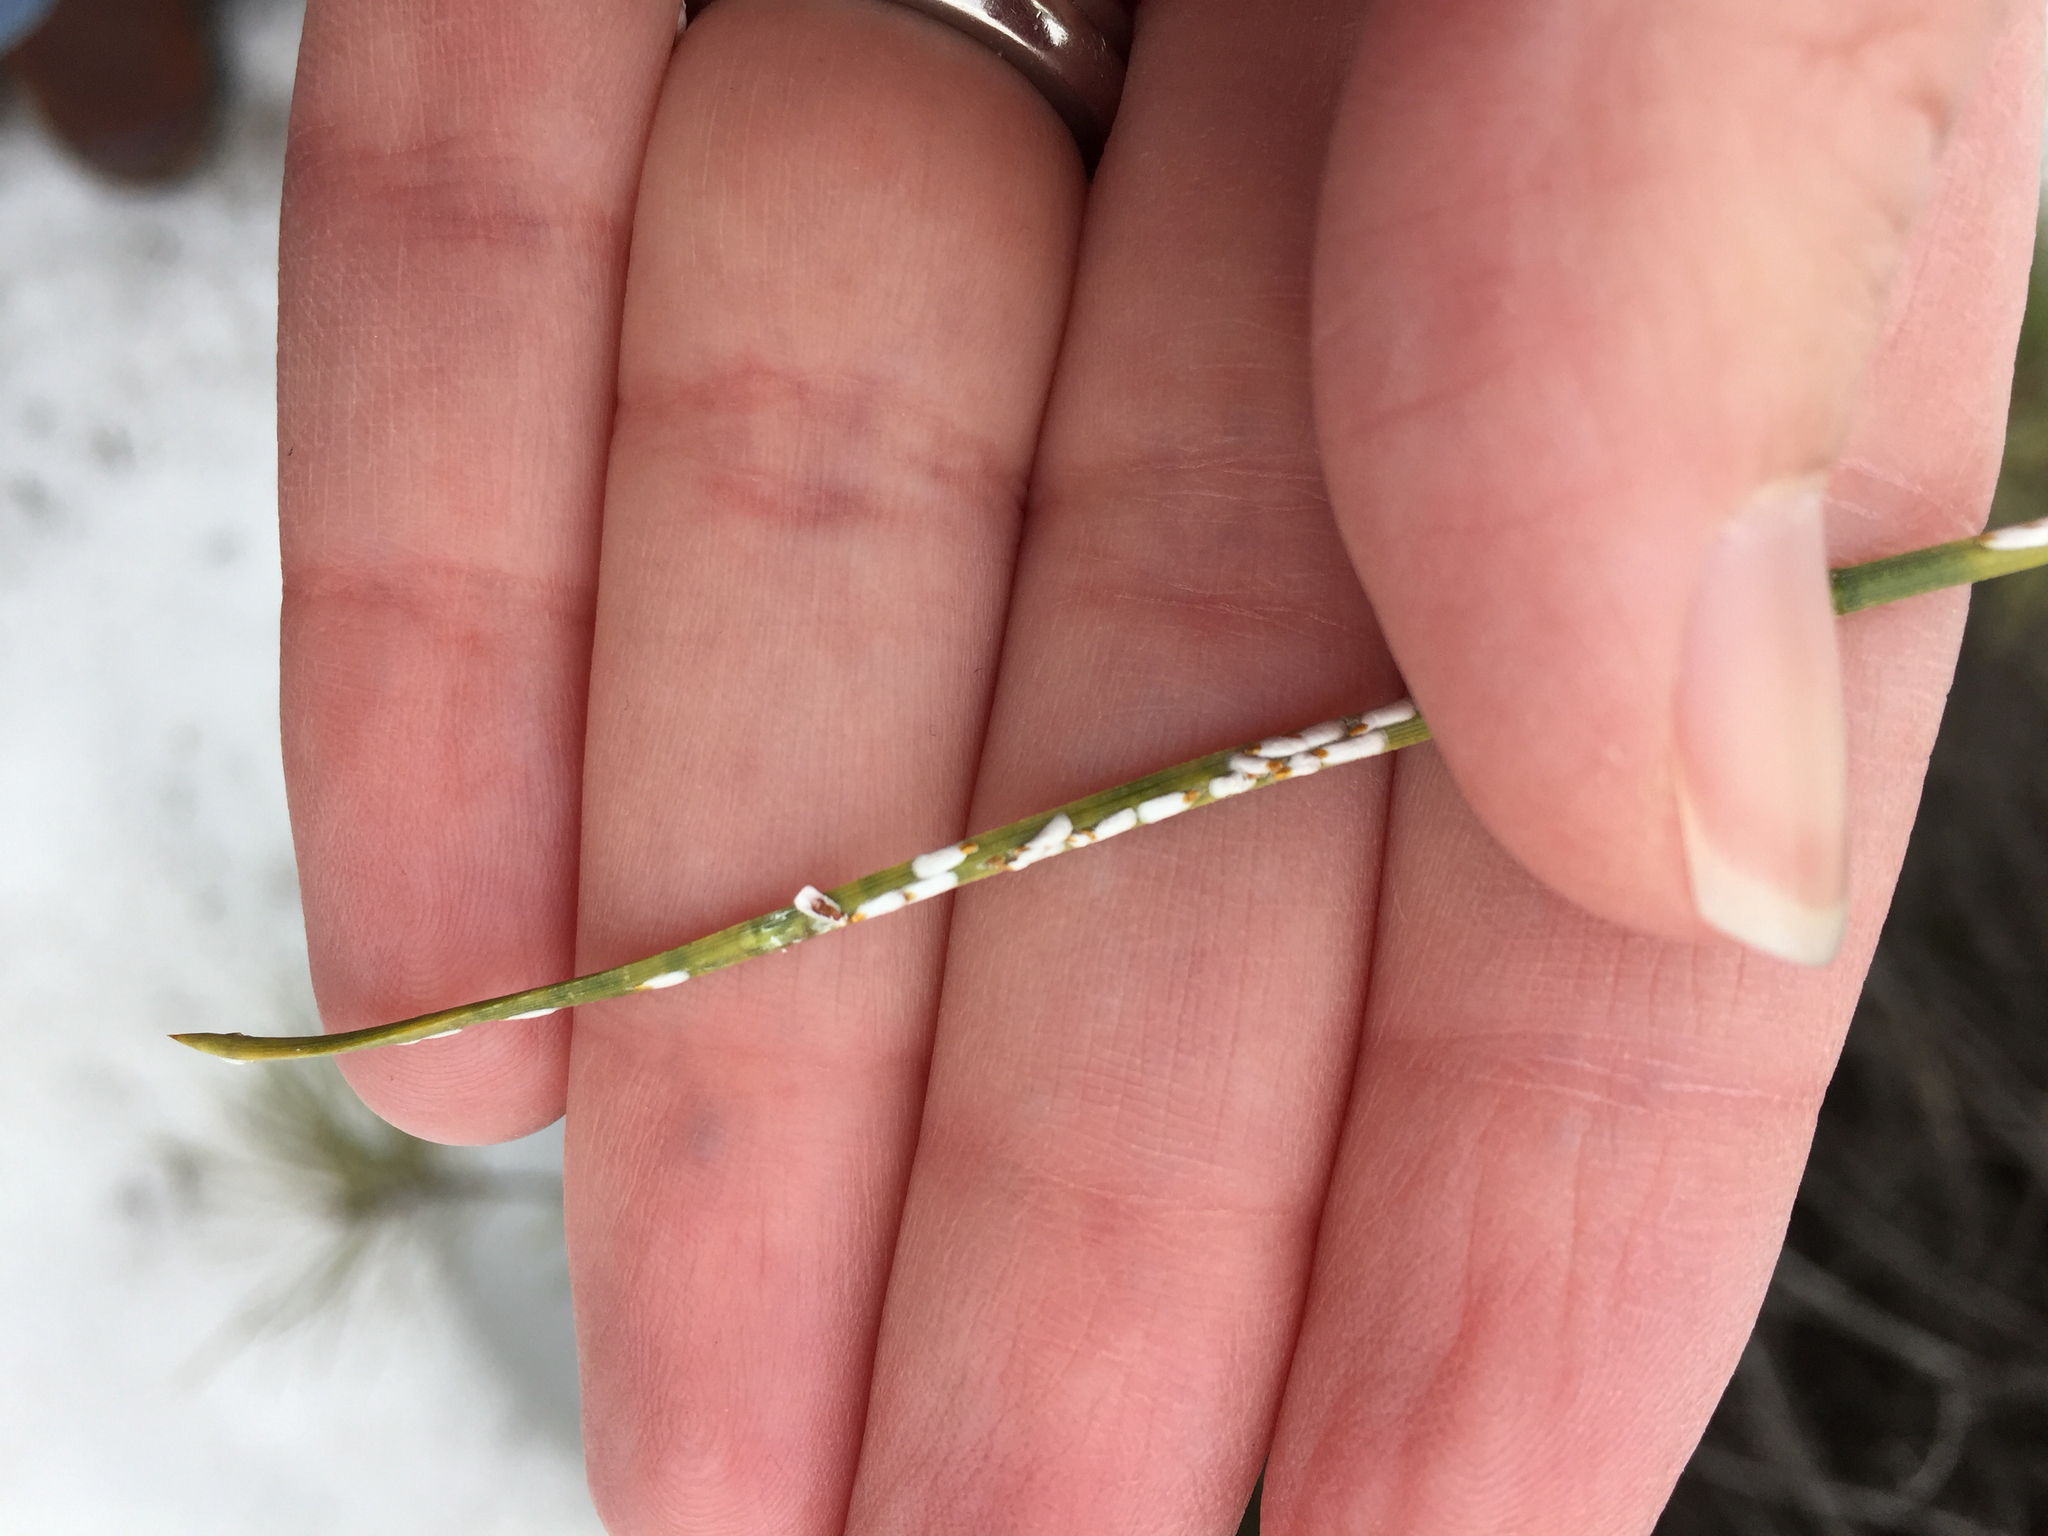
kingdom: Animalia
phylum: Arthropoda
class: Insecta
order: Hemiptera
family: Diaspididae
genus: Chionaspis
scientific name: Chionaspis pinifoliae
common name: Pine leaf scale
